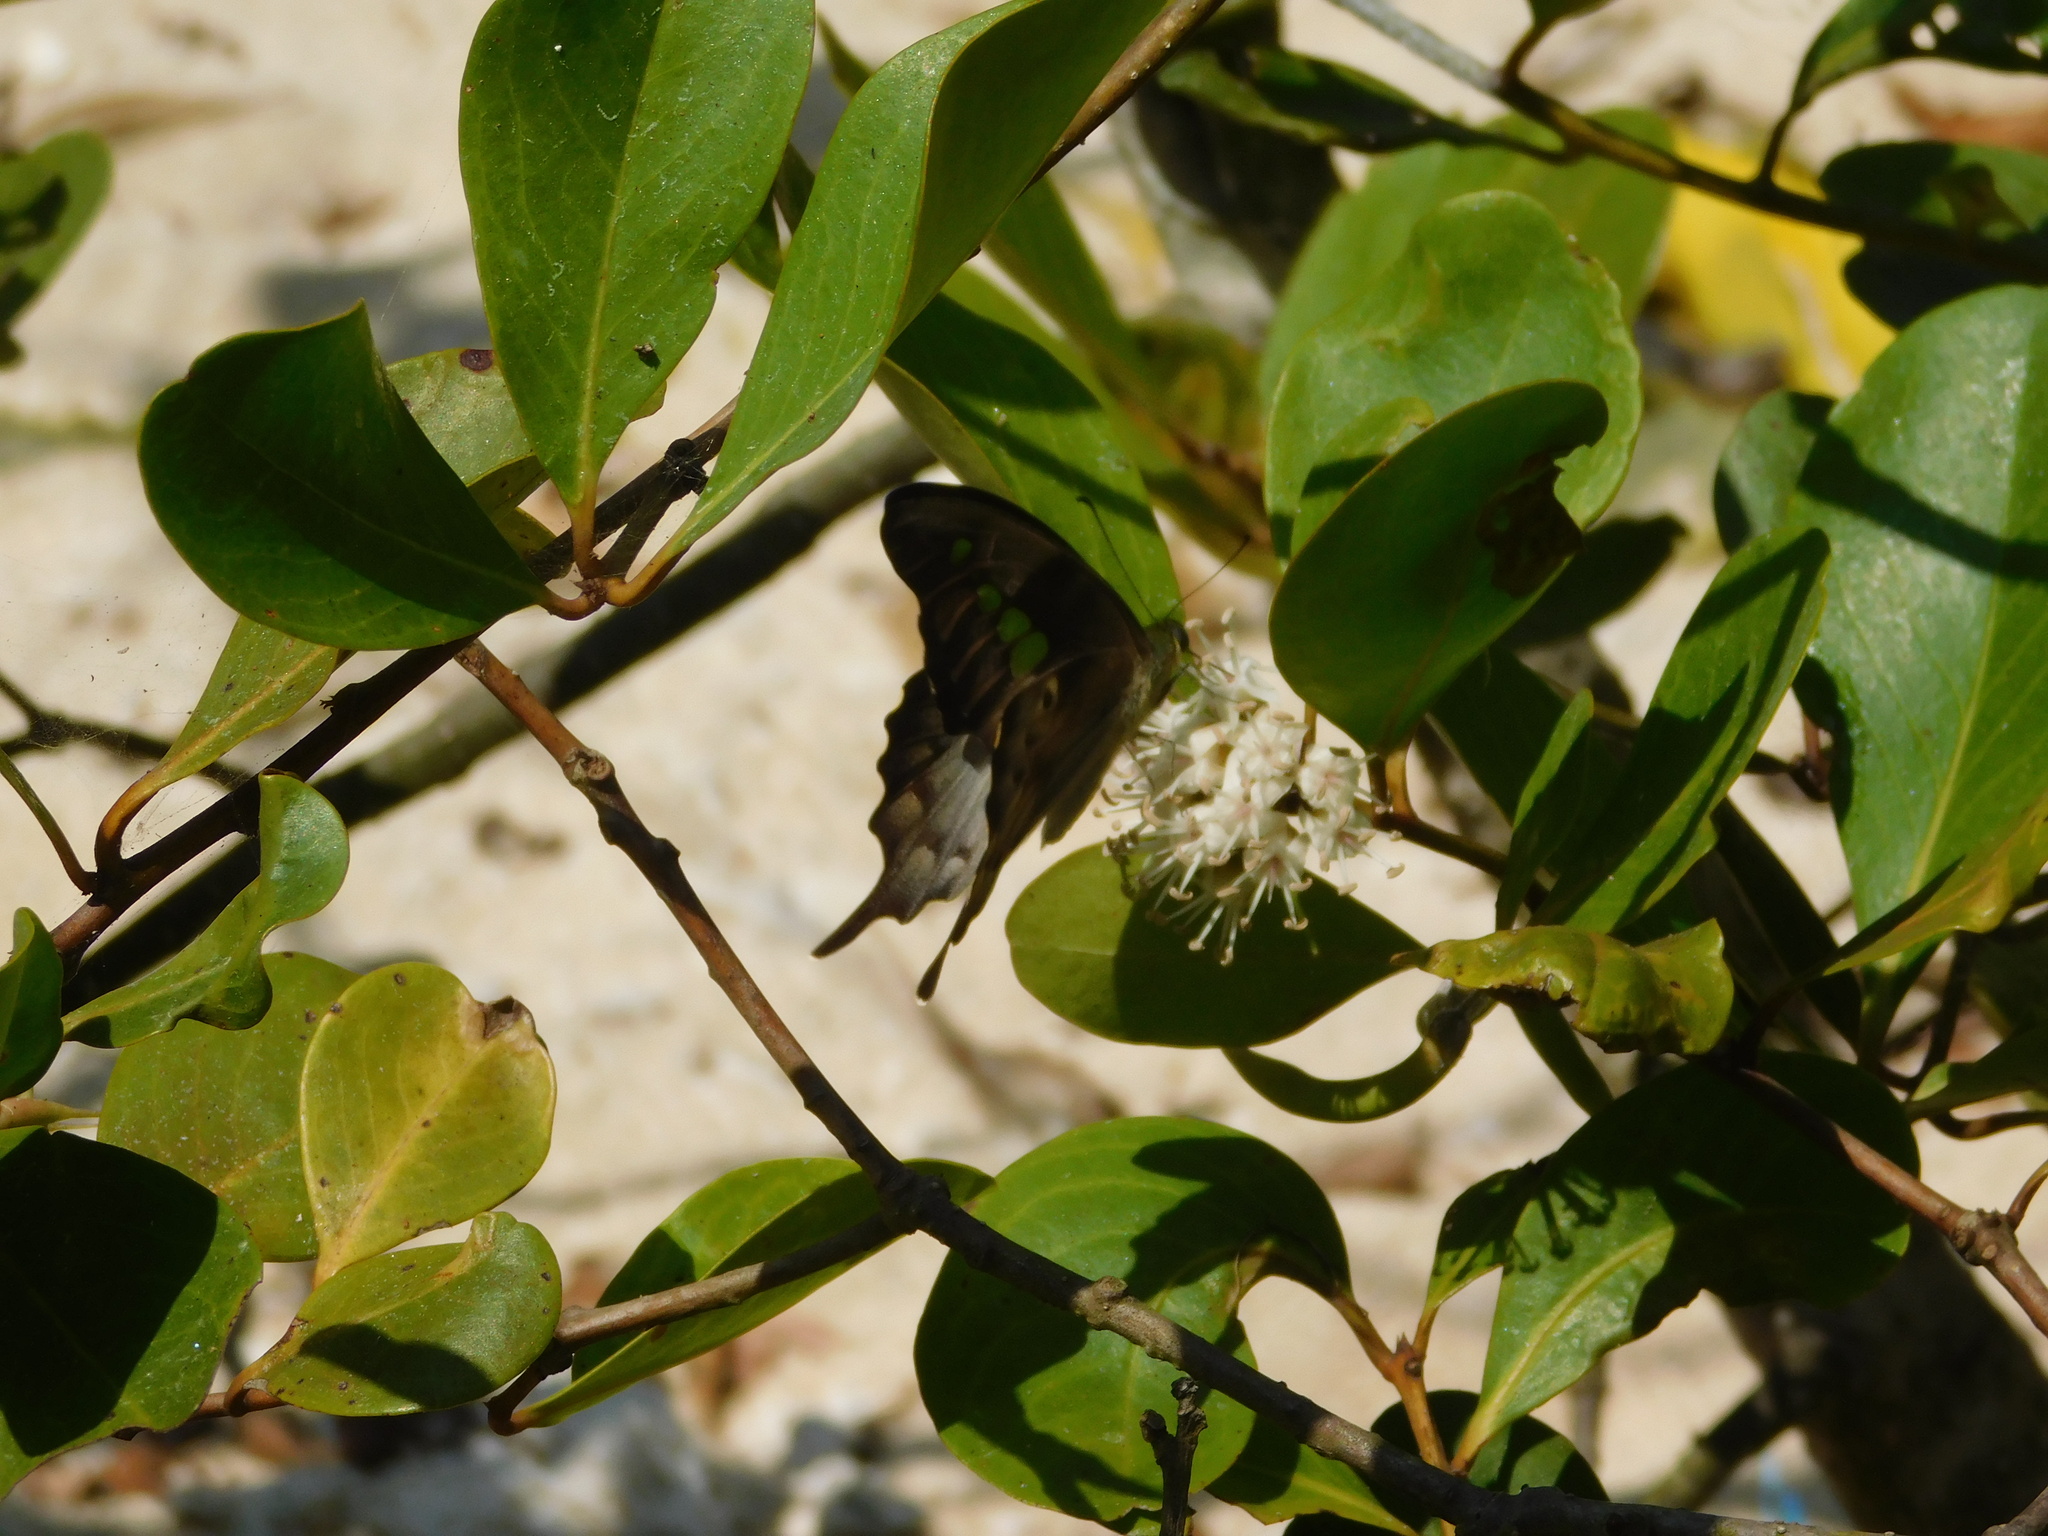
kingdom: Animalia
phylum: Arthropoda
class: Insecta
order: Lepidoptera
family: Papilionidae
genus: Graphium
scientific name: Graphium empedovana
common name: Malayan yellowbottle
